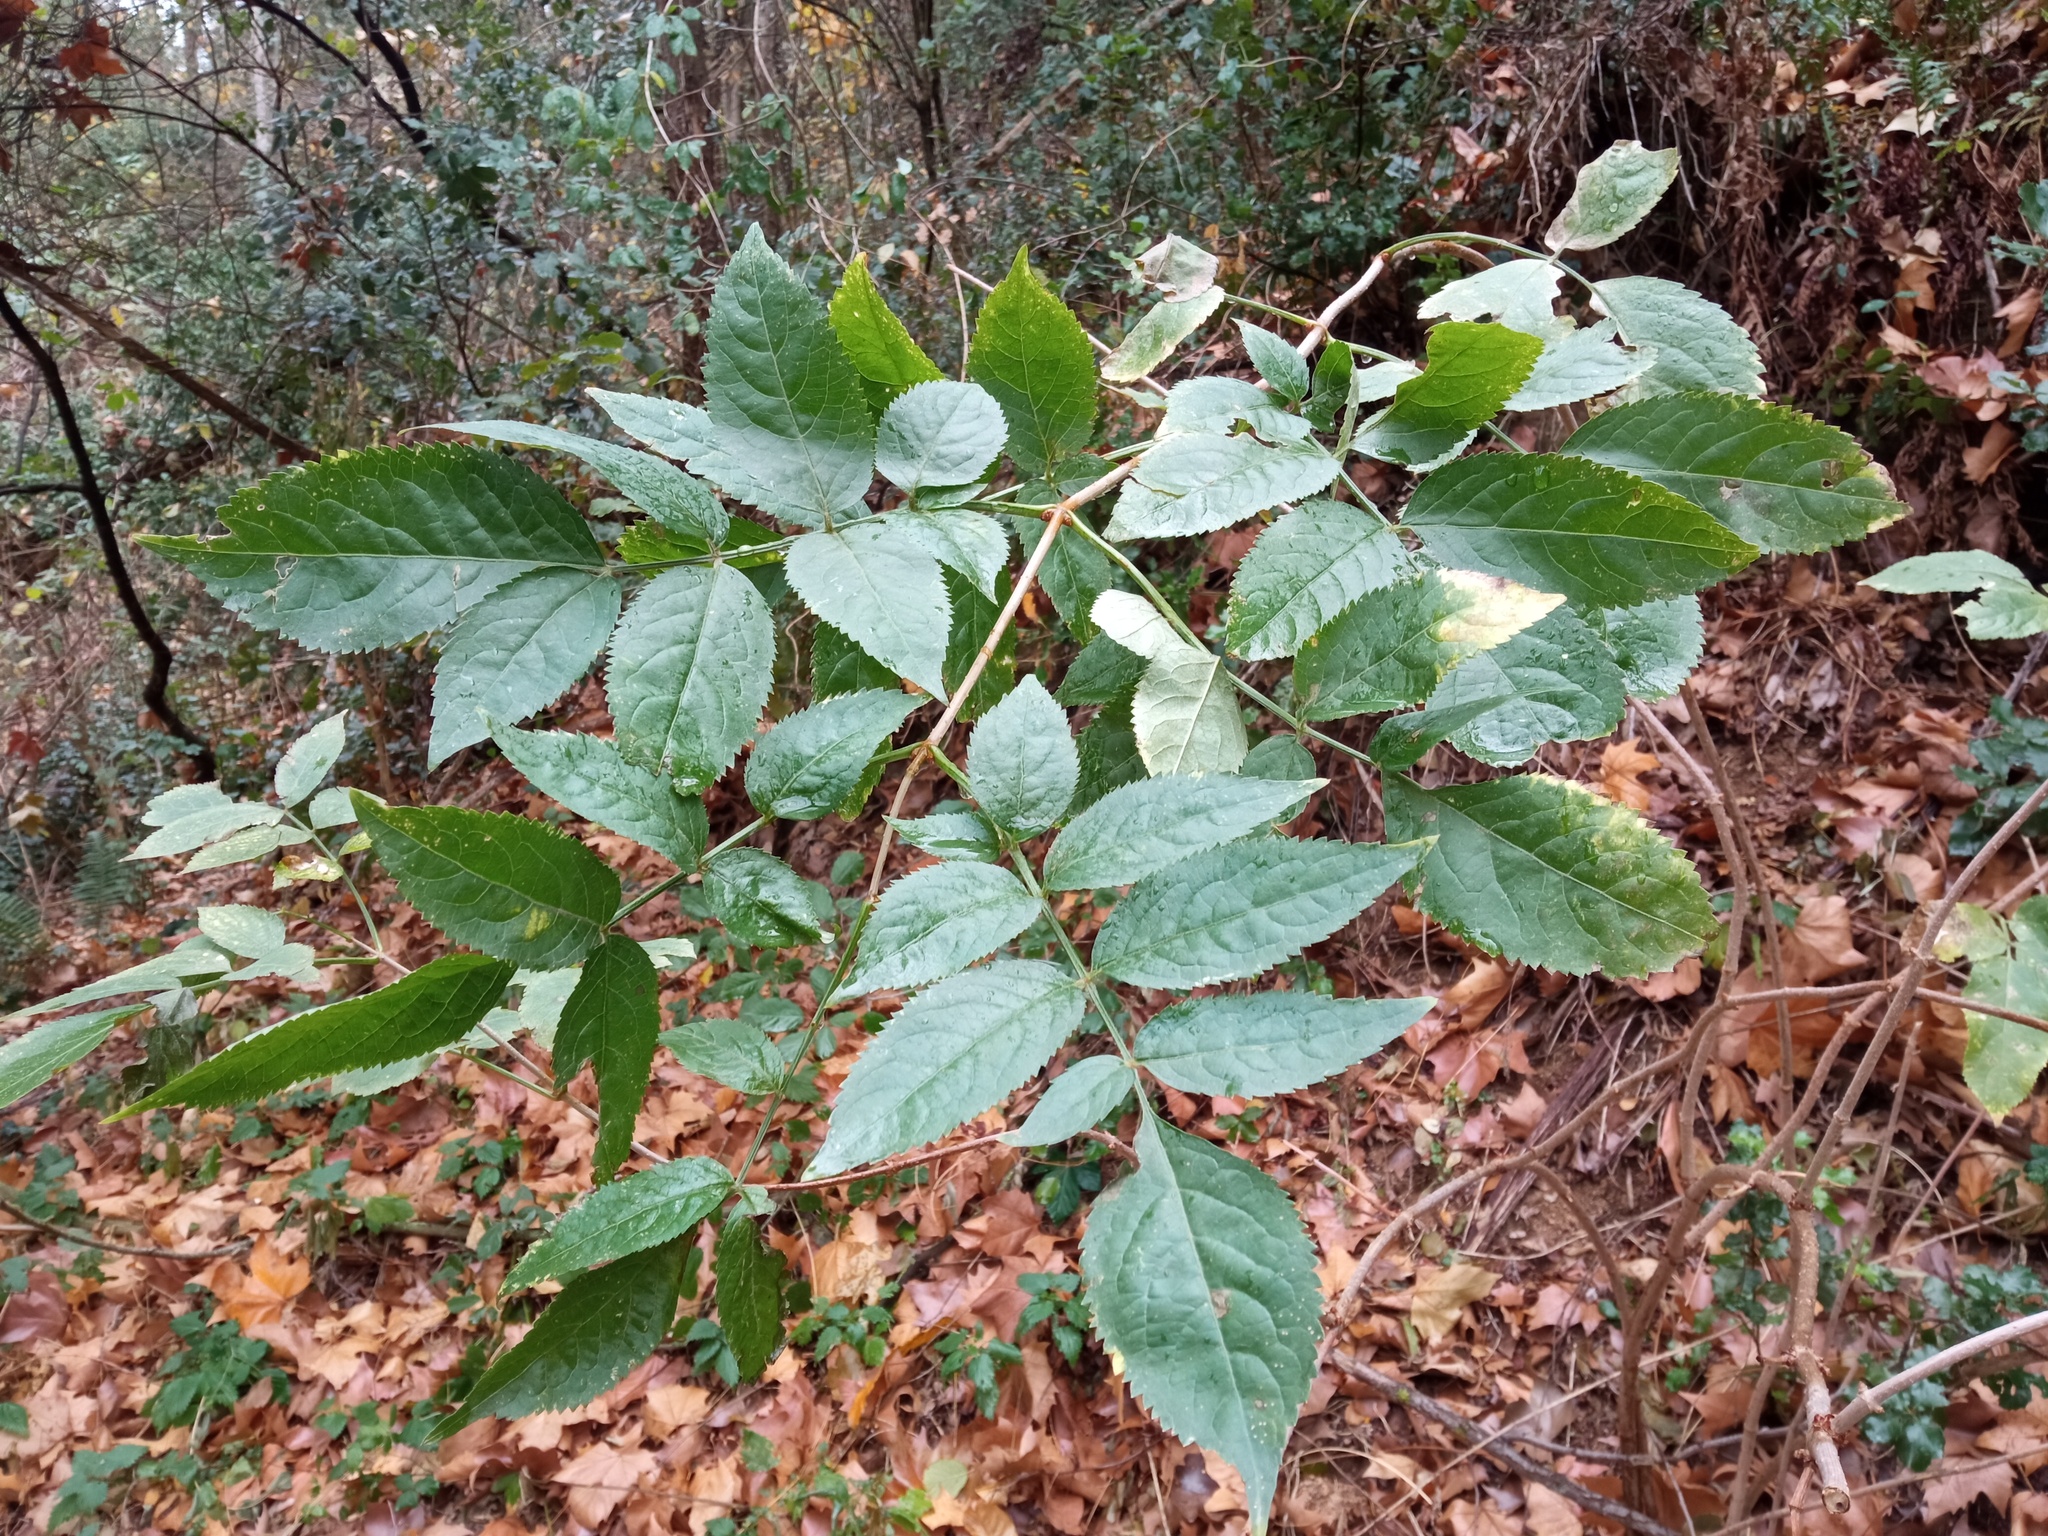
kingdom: Plantae
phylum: Tracheophyta
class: Magnoliopsida
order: Dipsacales
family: Viburnaceae
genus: Sambucus
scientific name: Sambucus nigra
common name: Elder
